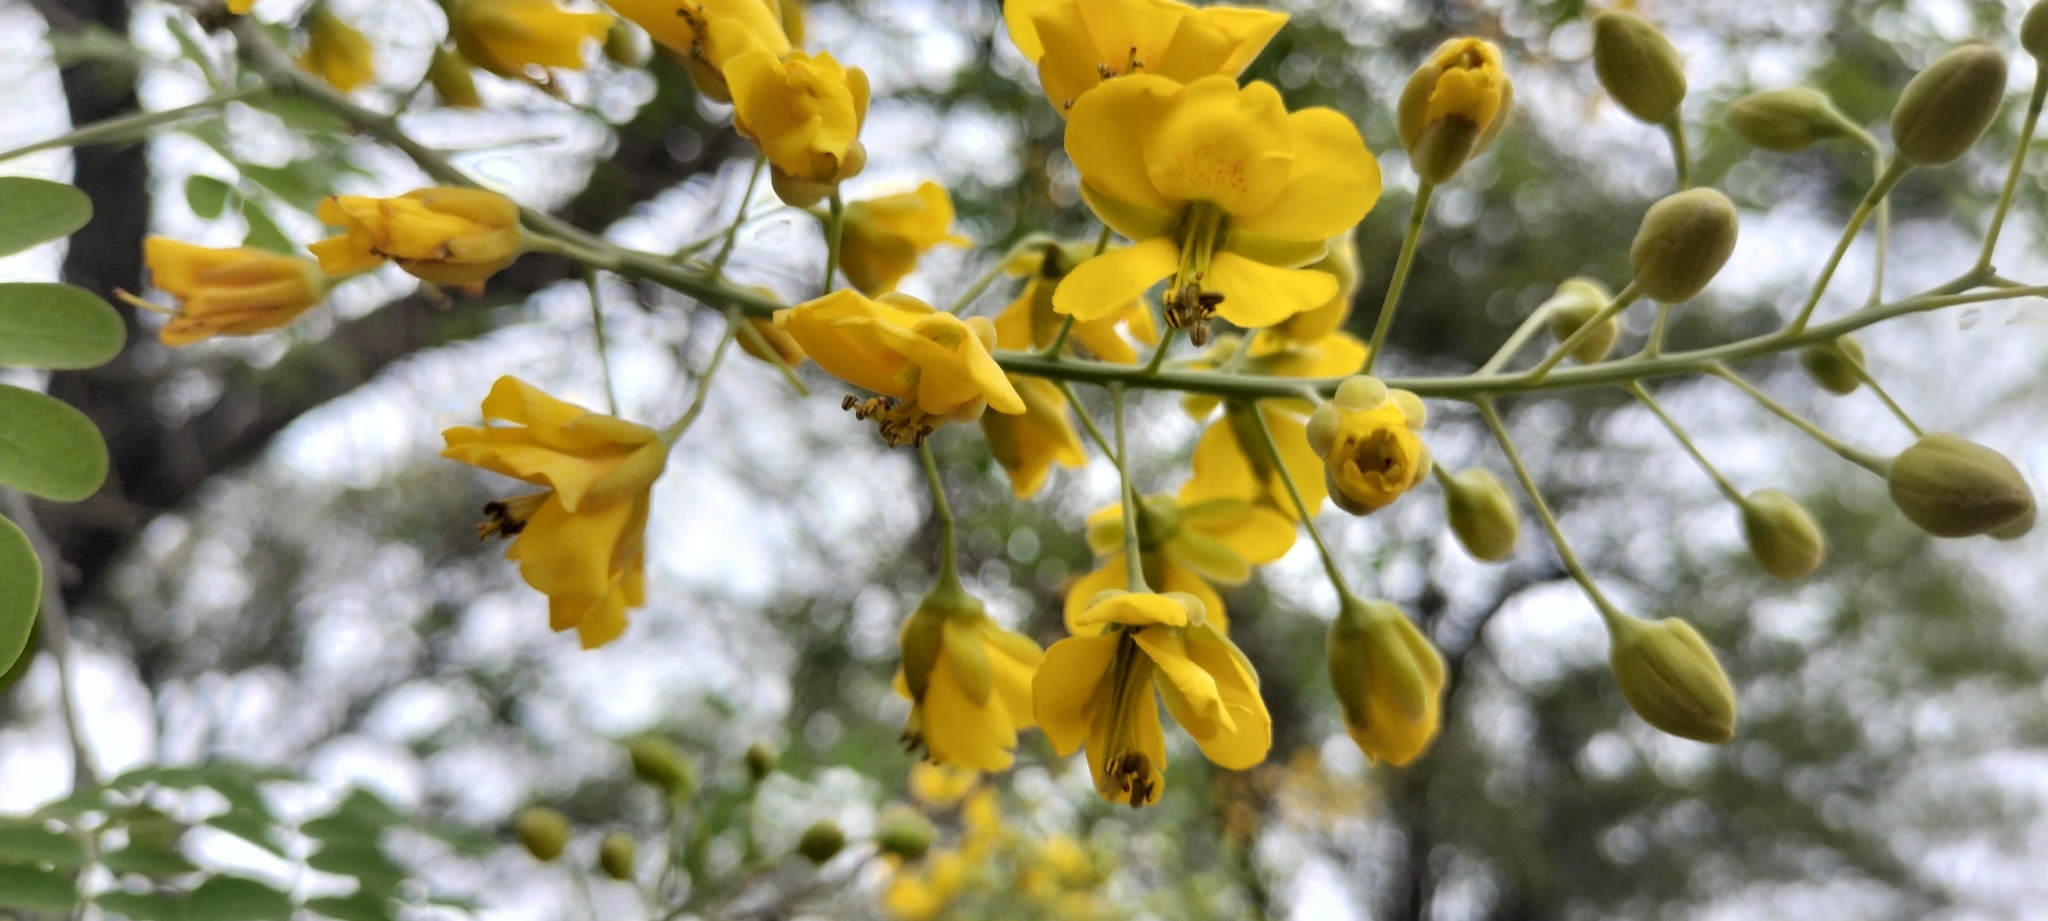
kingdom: Plantae
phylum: Tracheophyta
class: Magnoliopsida
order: Fabales
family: Fabaceae
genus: Erythrostemon
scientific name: Erythrostemon mexicanus
